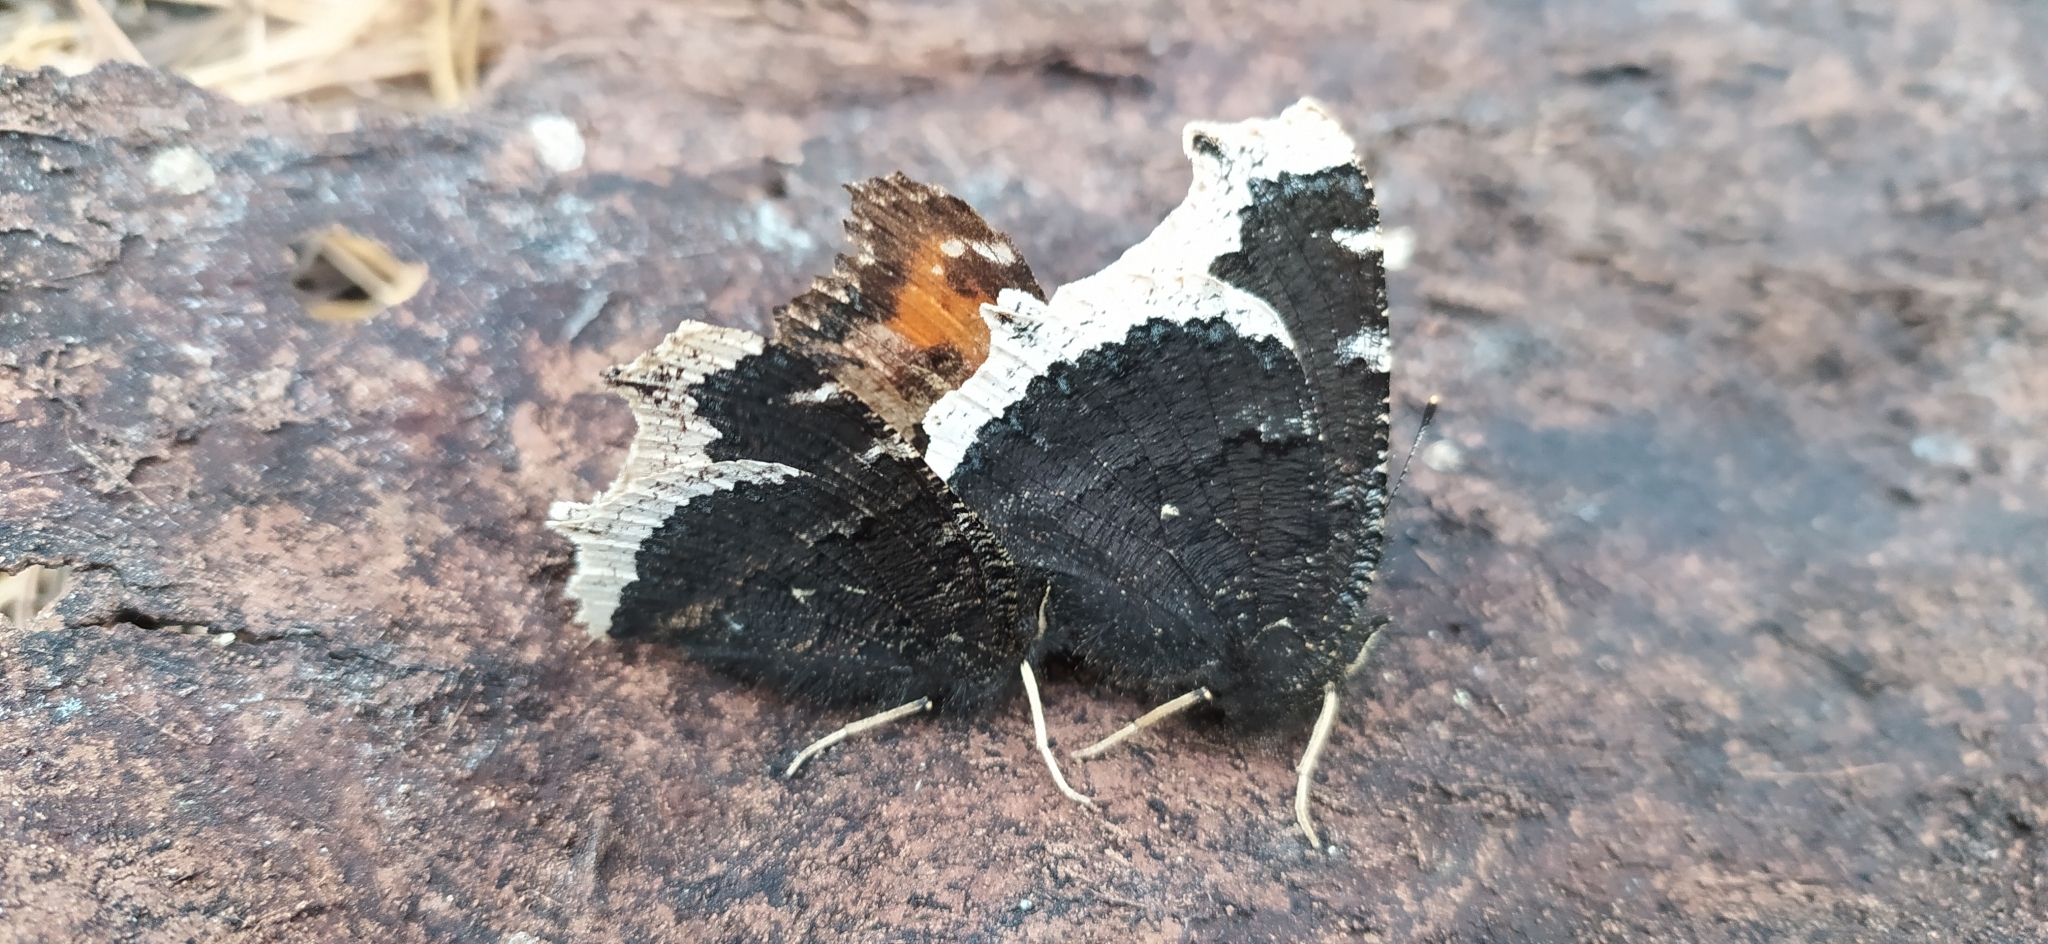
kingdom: Animalia
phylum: Arthropoda
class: Insecta
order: Lepidoptera
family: Nymphalidae
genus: Nymphalis
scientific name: Nymphalis antiopa
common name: Camberwell beauty
